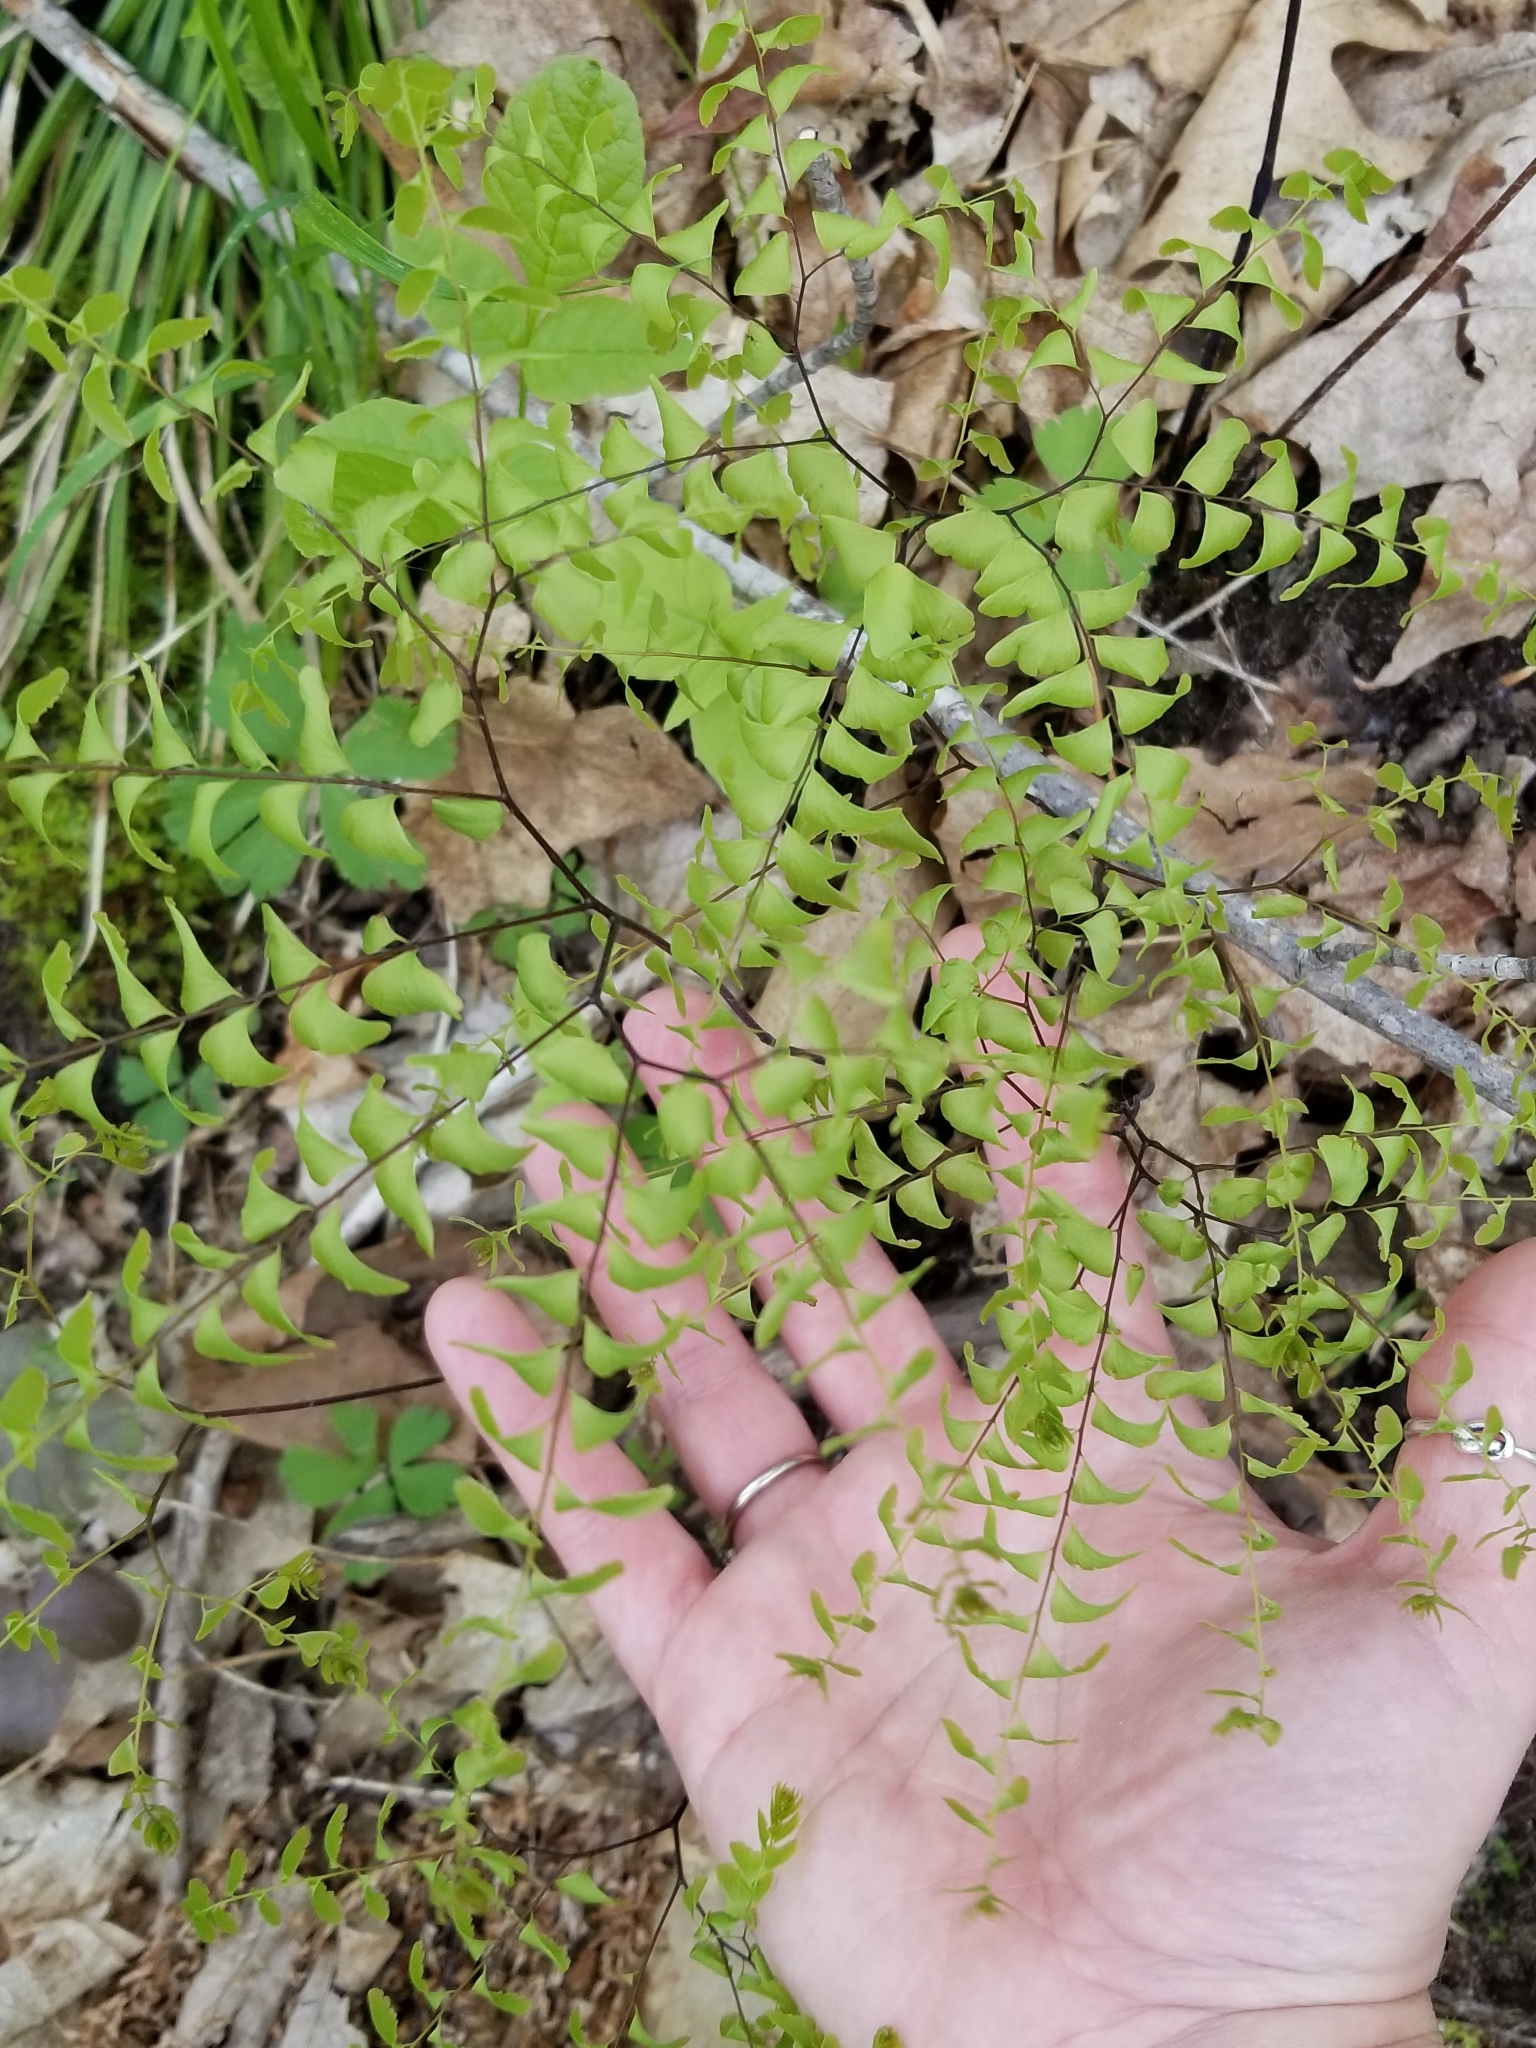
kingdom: Plantae
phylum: Tracheophyta
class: Polypodiopsida
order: Polypodiales
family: Pteridaceae
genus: Adiantum
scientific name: Adiantum pedatum
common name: Five-finger fern
